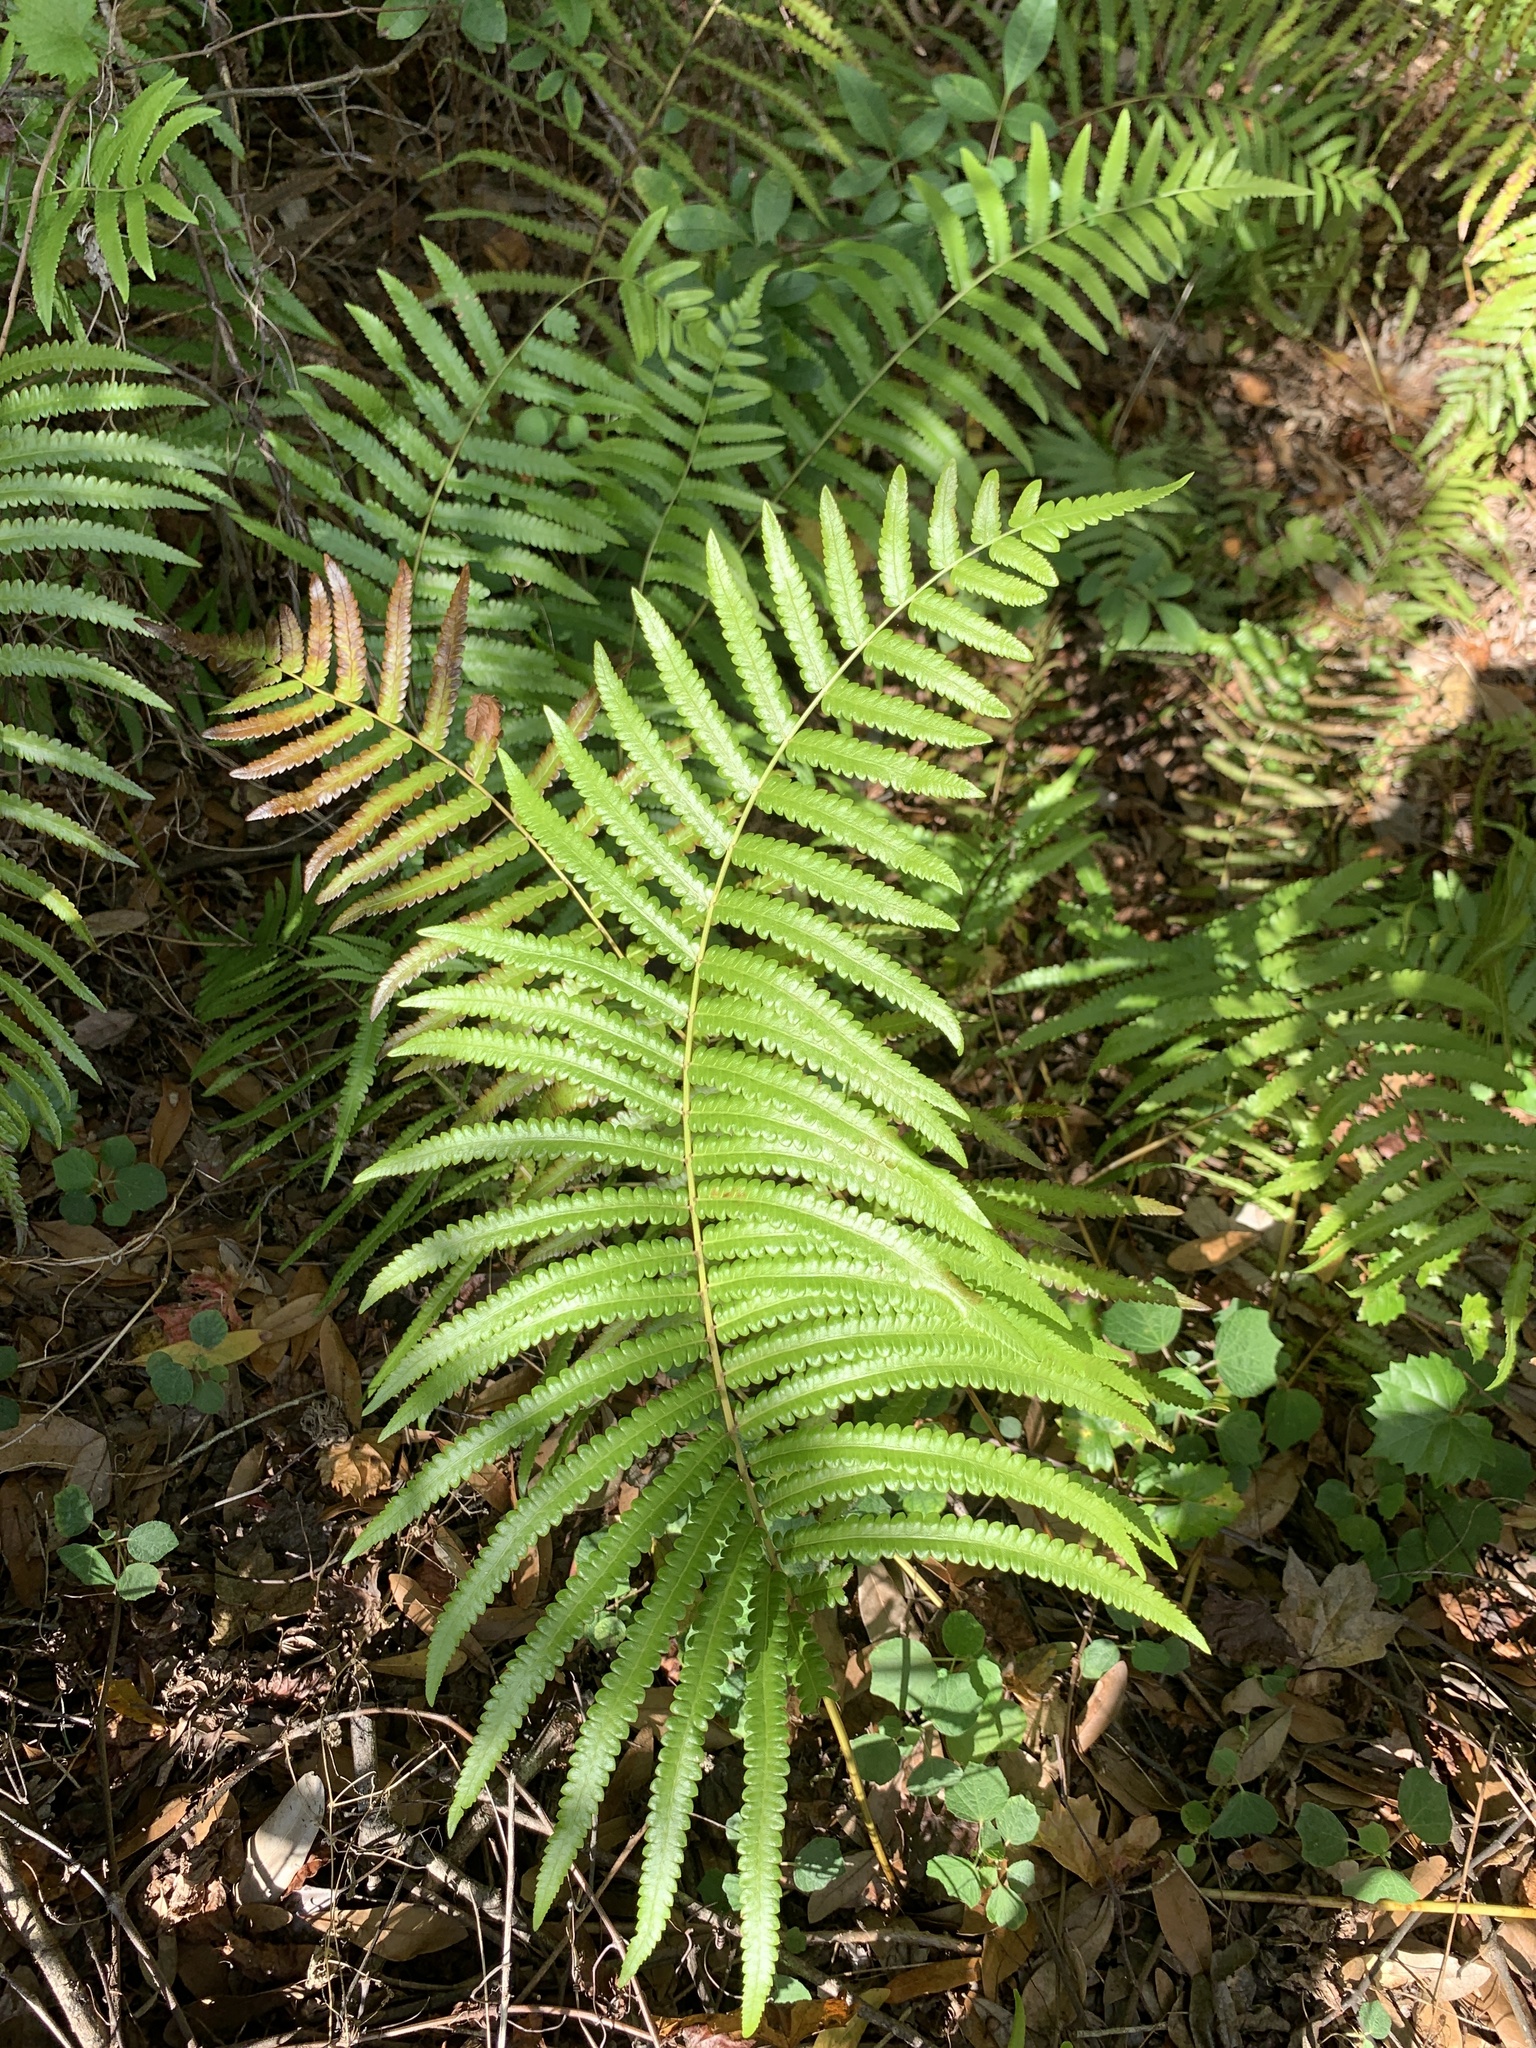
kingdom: Plantae
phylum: Tracheophyta
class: Polypodiopsida
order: Polypodiales
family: Thelypteridaceae
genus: Cyclosorus
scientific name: Cyclosorus interruptus
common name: Neke fern
